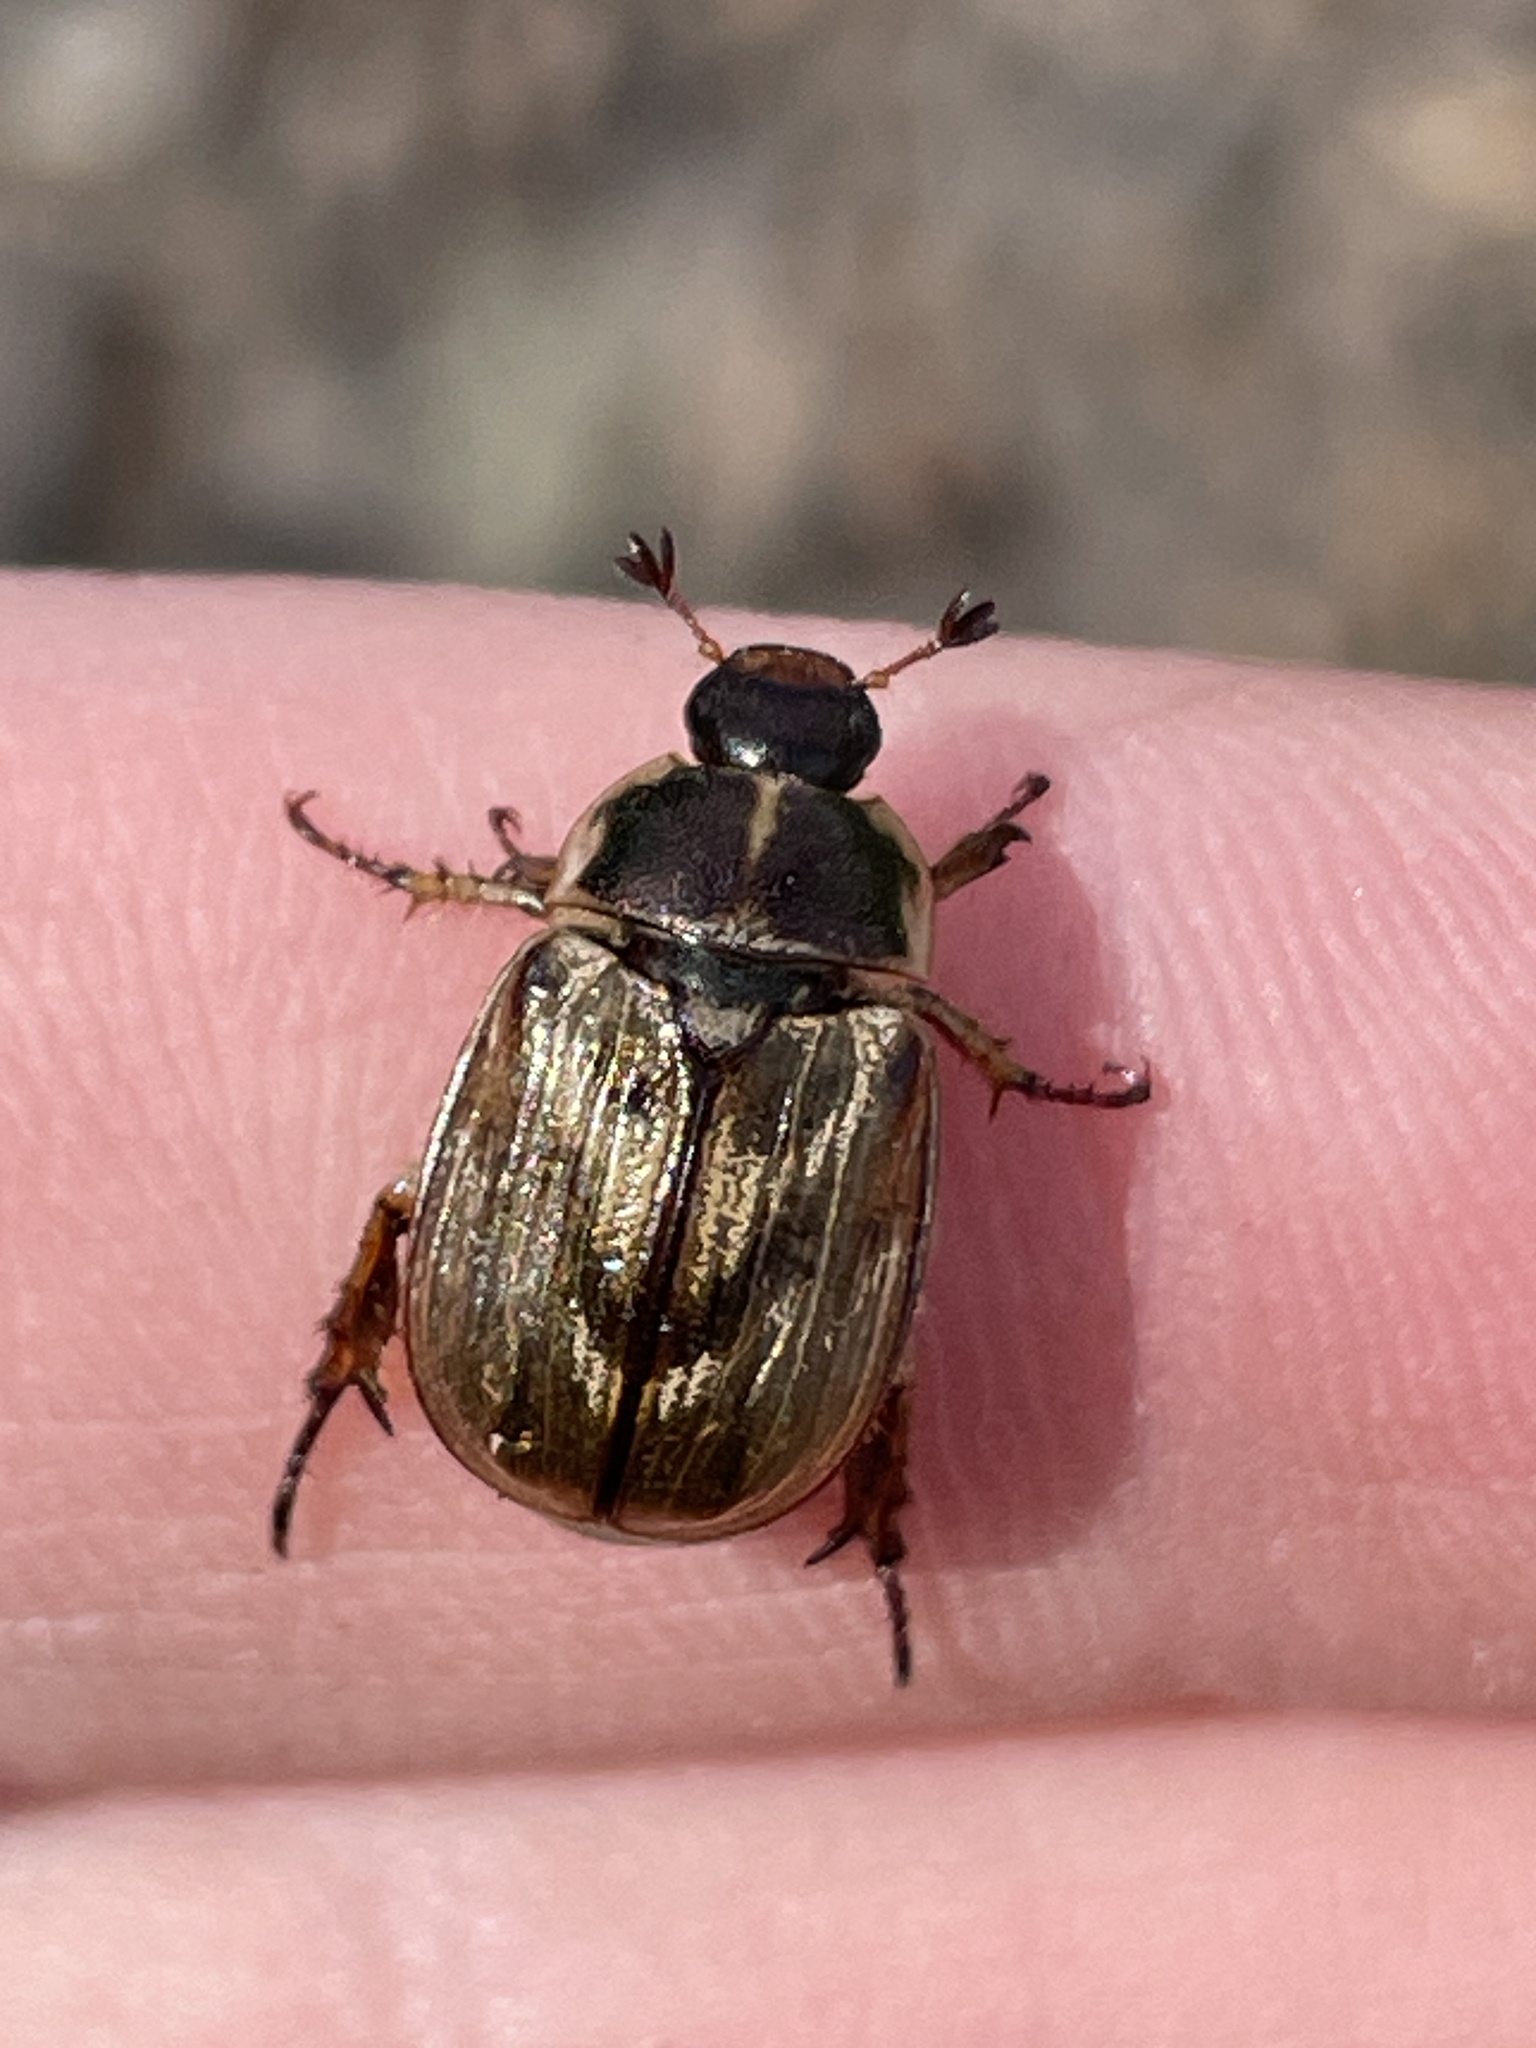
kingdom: Animalia
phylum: Arthropoda
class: Insecta
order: Coleoptera
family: Scarabaeidae
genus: Exomala
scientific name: Exomala orientalis
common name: Oriental beetle
